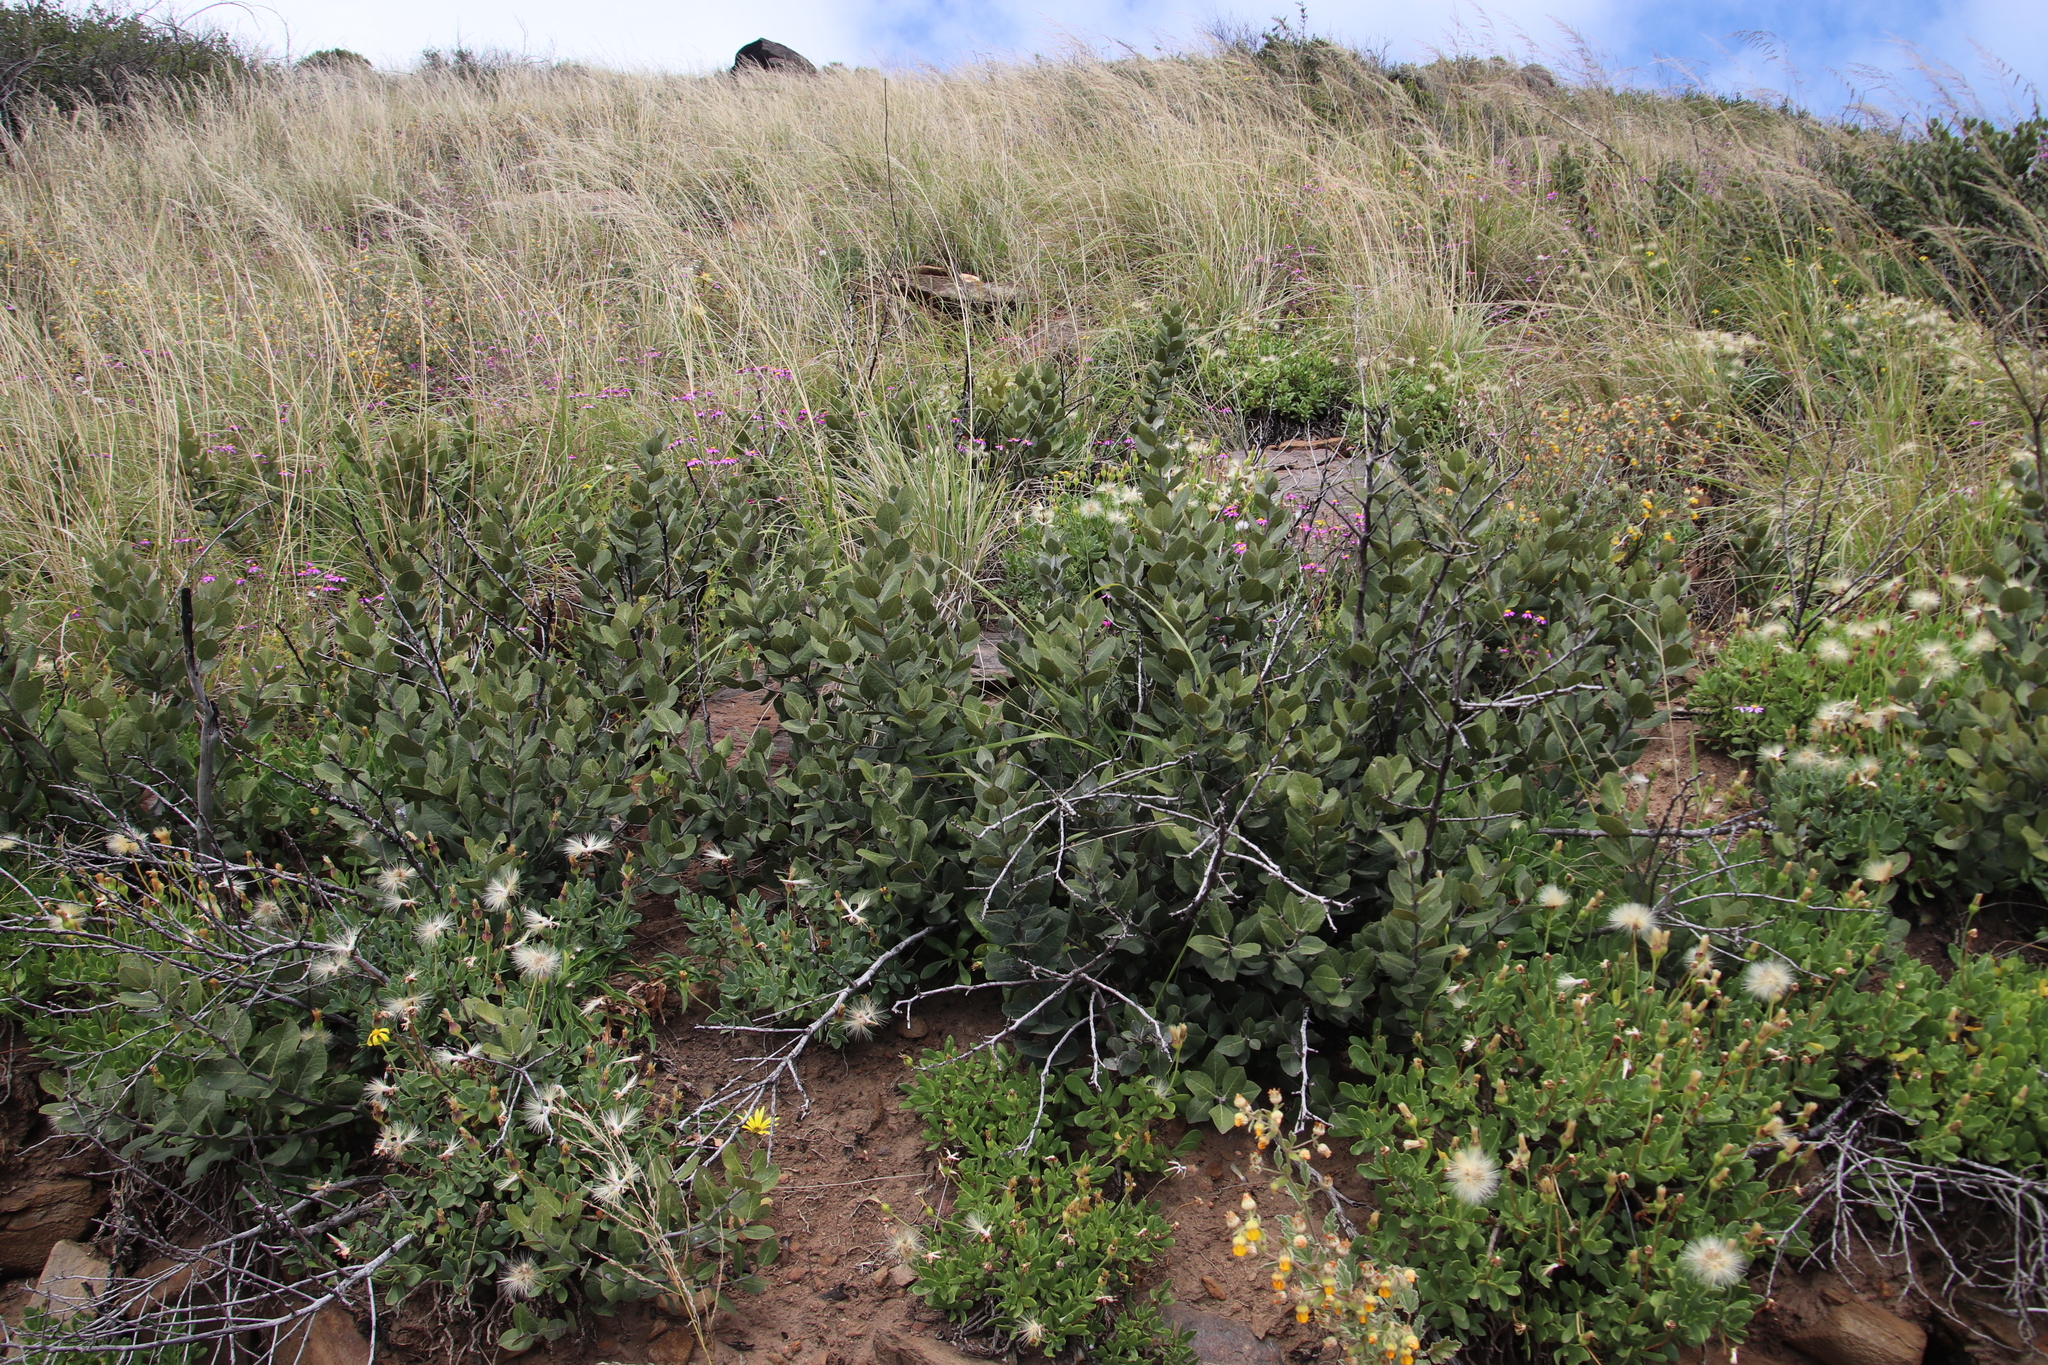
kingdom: Plantae
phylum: Tracheophyta
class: Magnoliopsida
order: Ericales
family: Ebenaceae
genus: Euclea
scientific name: Euclea tomentosa
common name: Honey guarri
